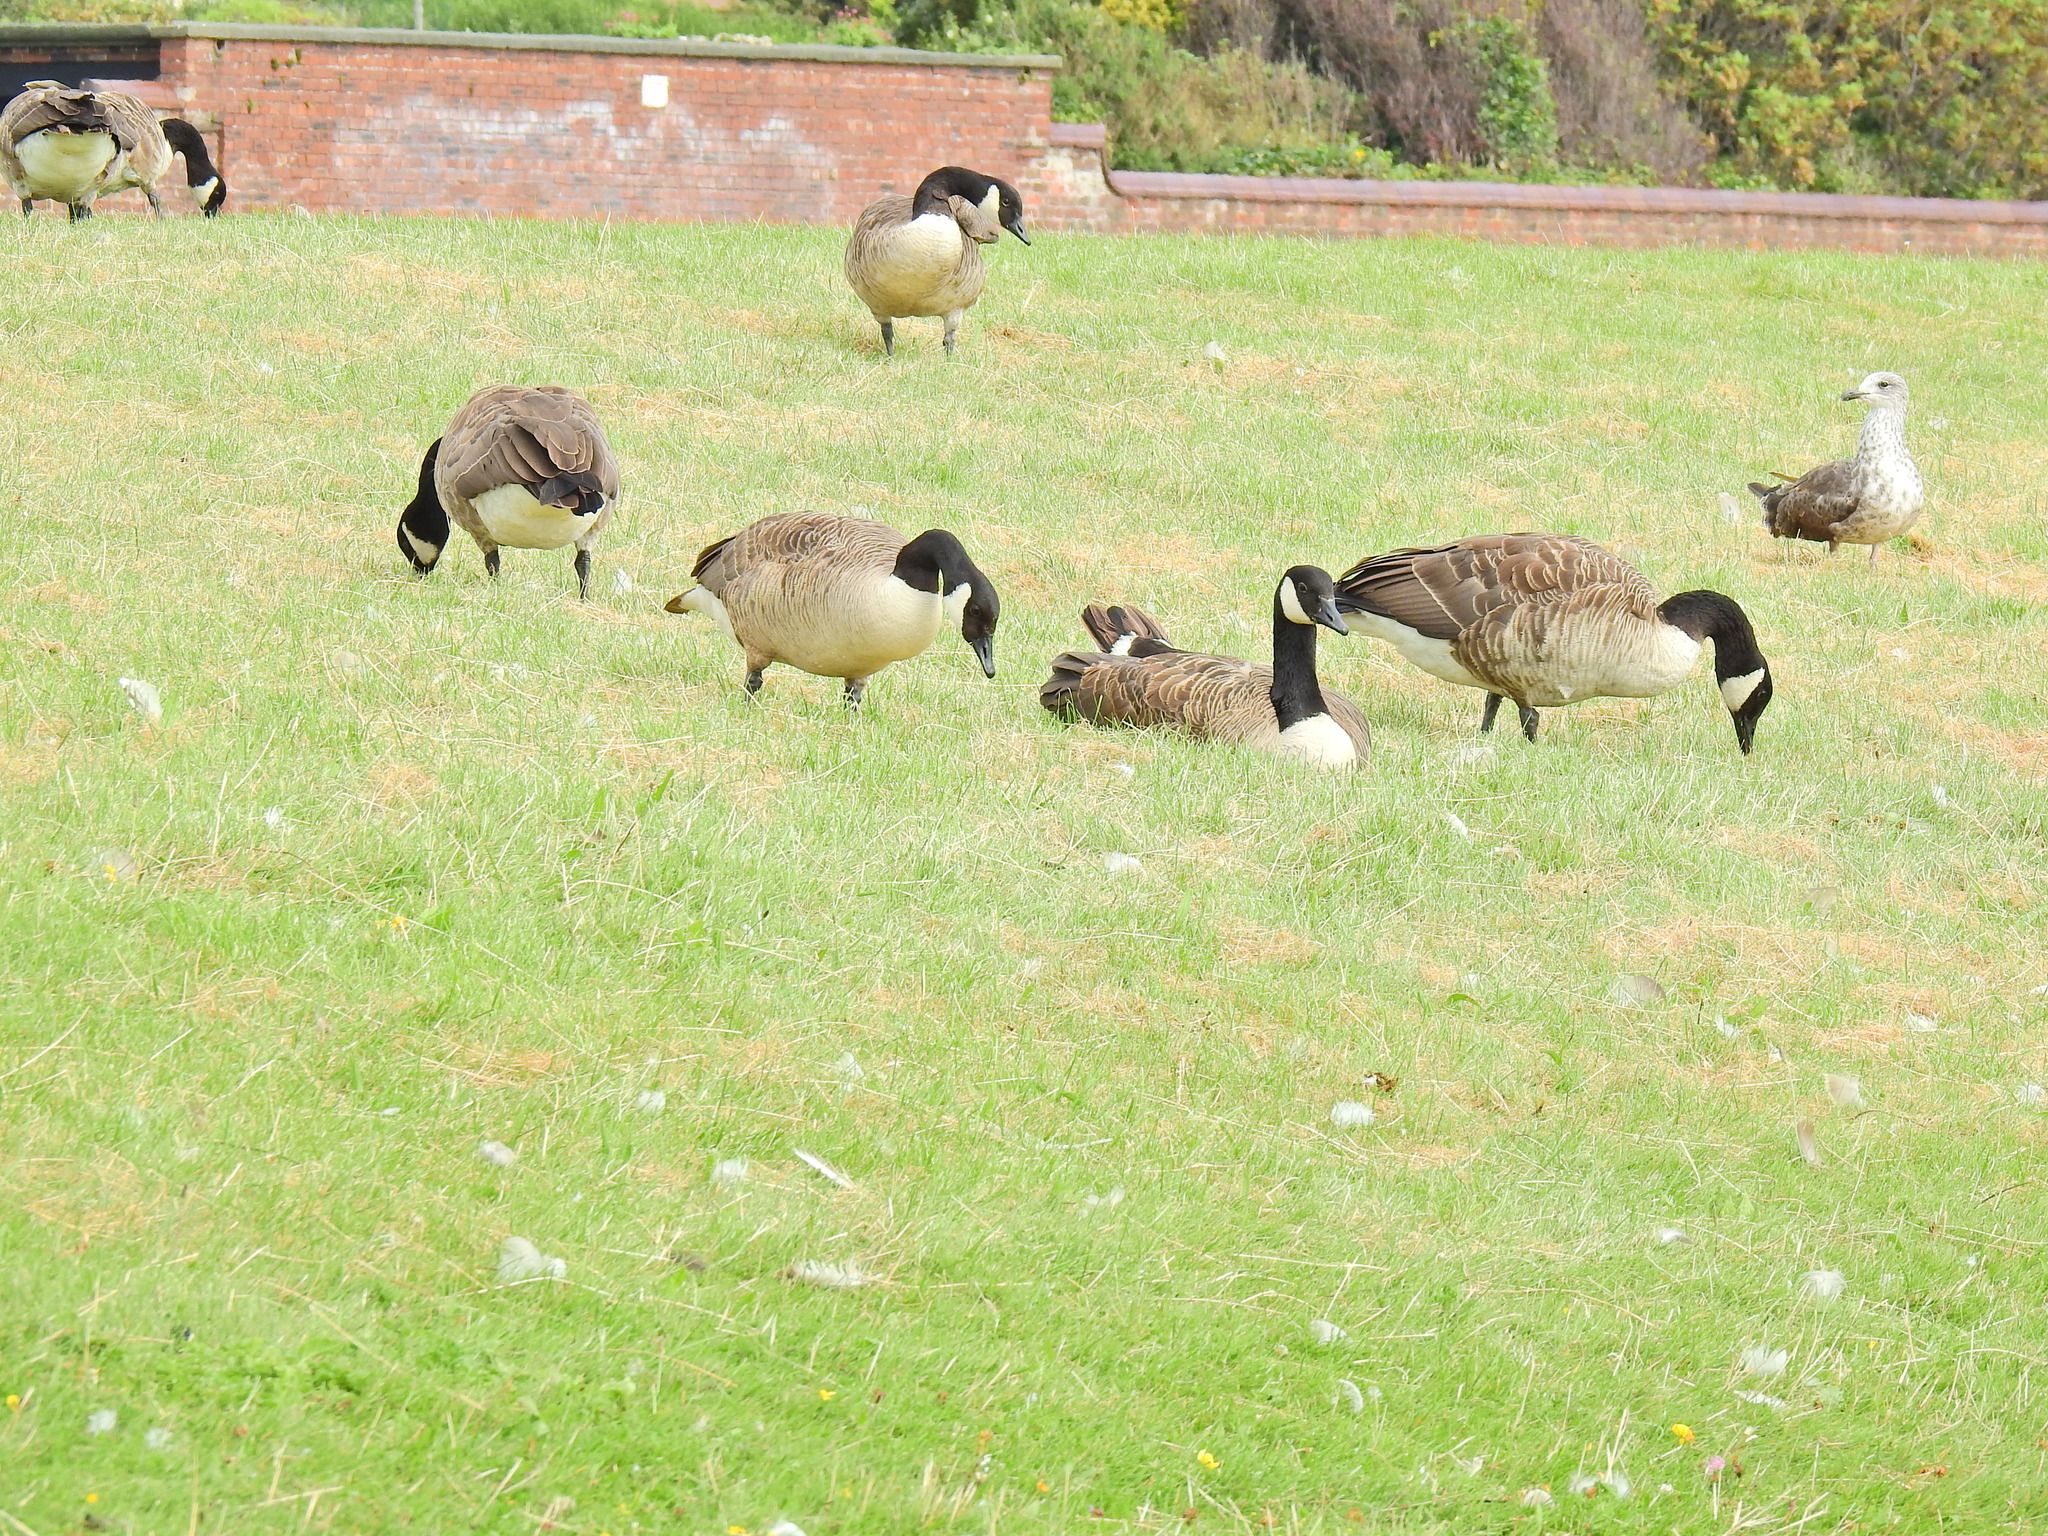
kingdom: Animalia
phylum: Chordata
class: Aves
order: Anseriformes
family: Anatidae
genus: Branta
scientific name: Branta canadensis
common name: Canada goose
